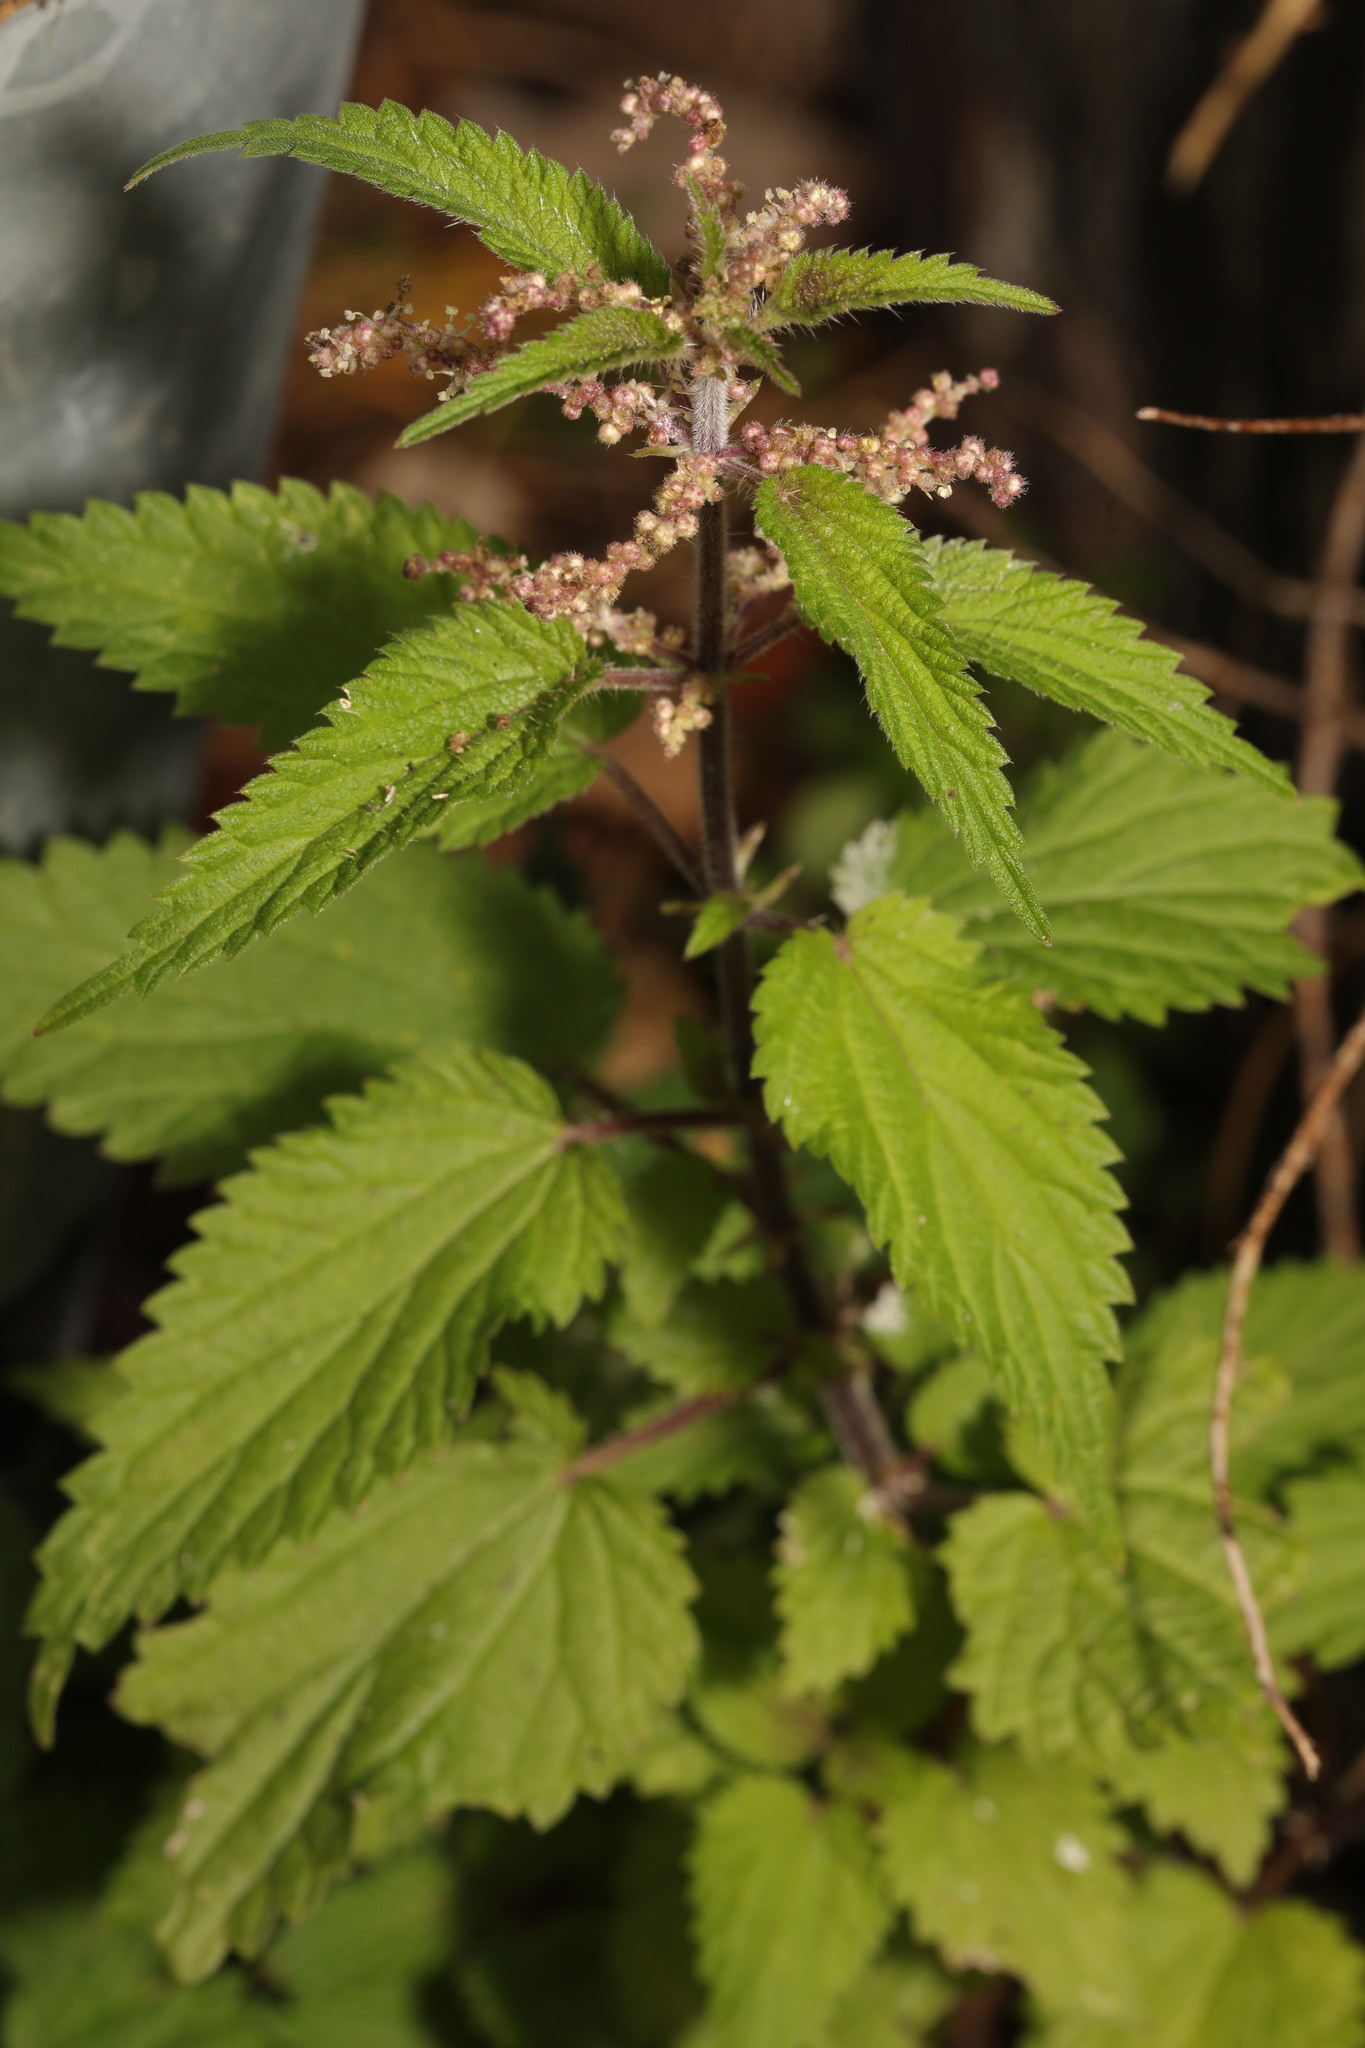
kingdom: Plantae
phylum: Tracheophyta
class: Magnoliopsida
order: Rosales
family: Urticaceae
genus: Urtica
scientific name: Urtica dioica
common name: Common nettle
